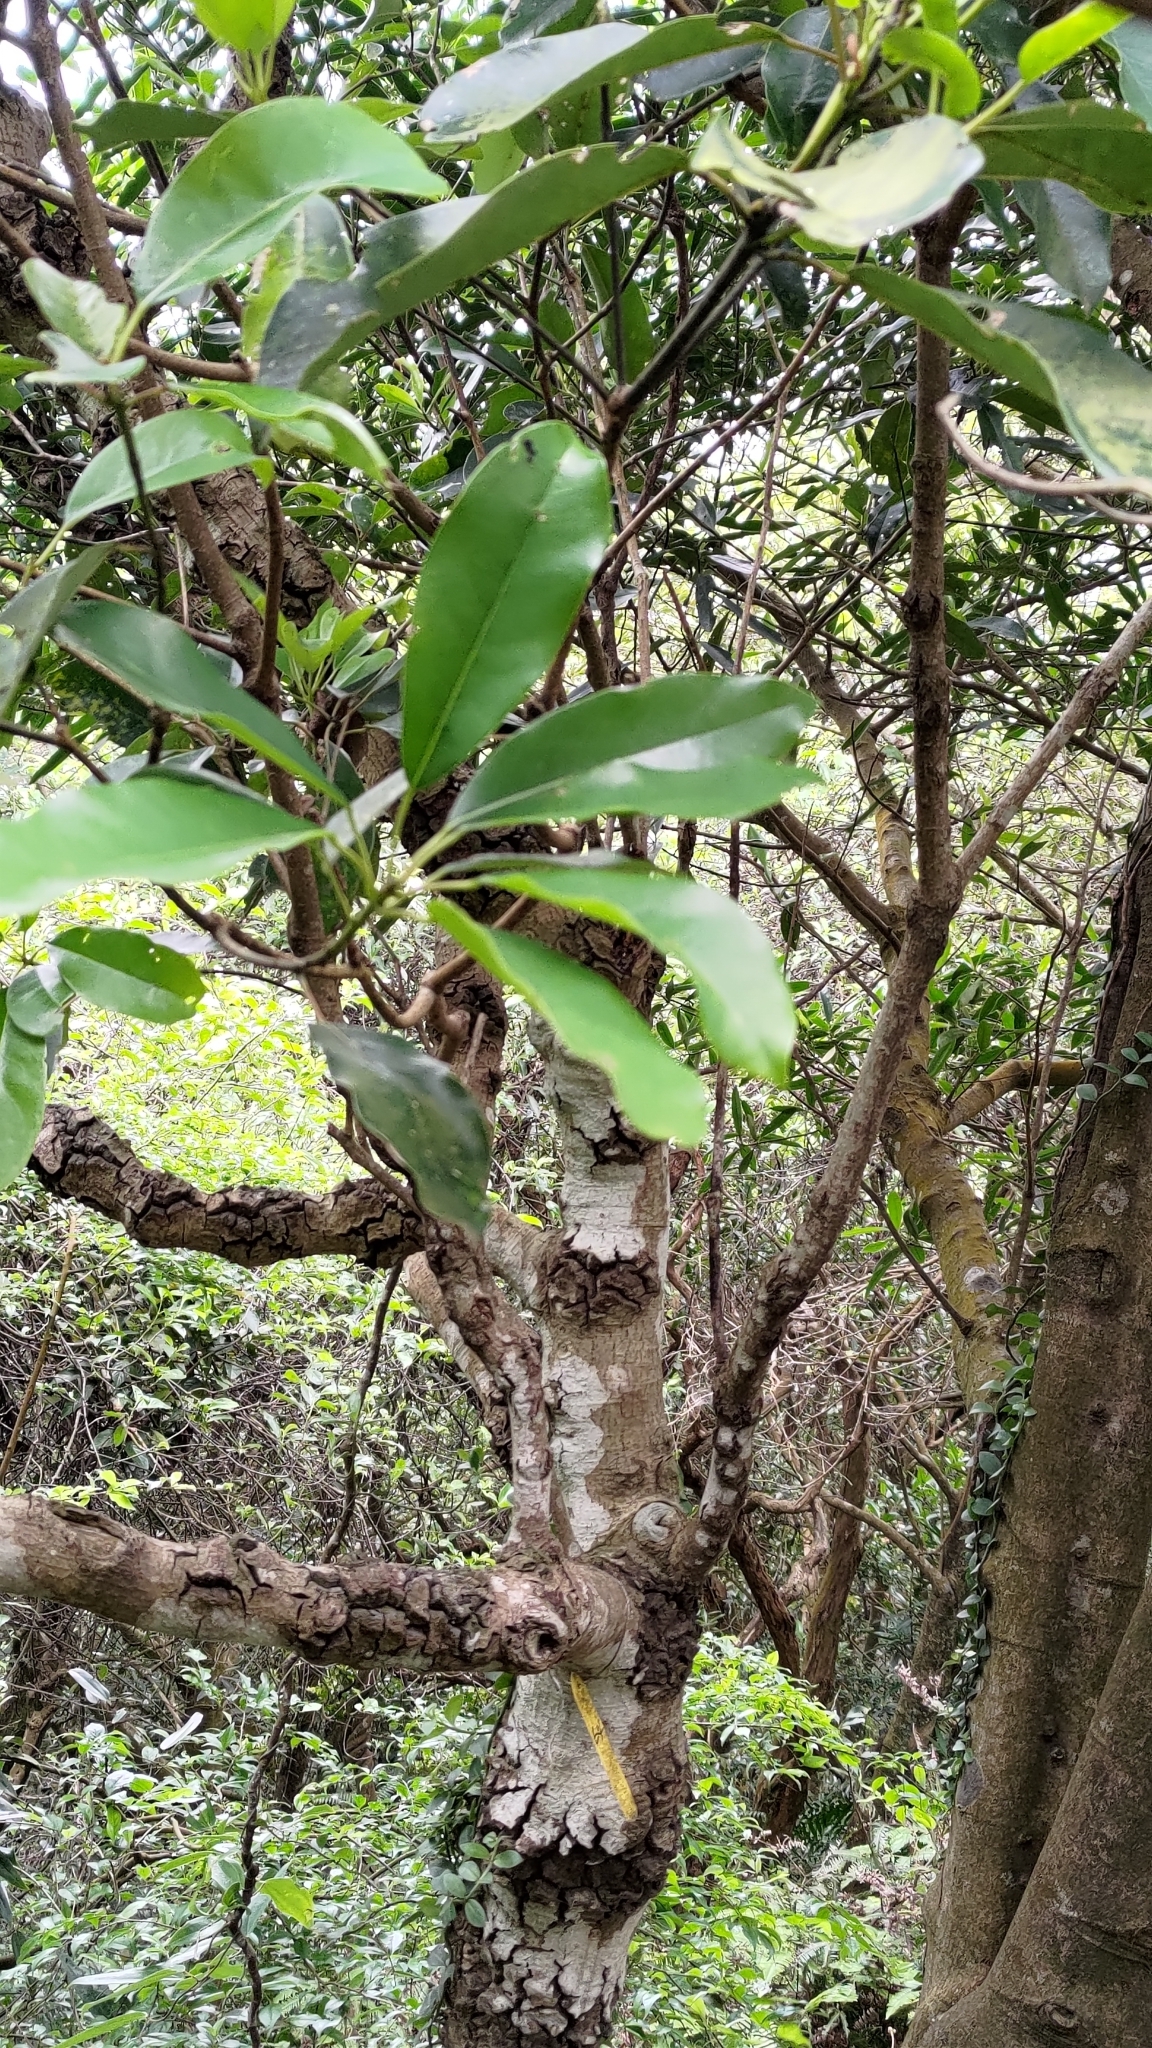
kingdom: Plantae
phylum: Tracheophyta
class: Magnoliopsida
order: Saxifragales
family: Daphniphyllaceae
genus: Daphniphyllum
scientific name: Daphniphyllum pentandrum
